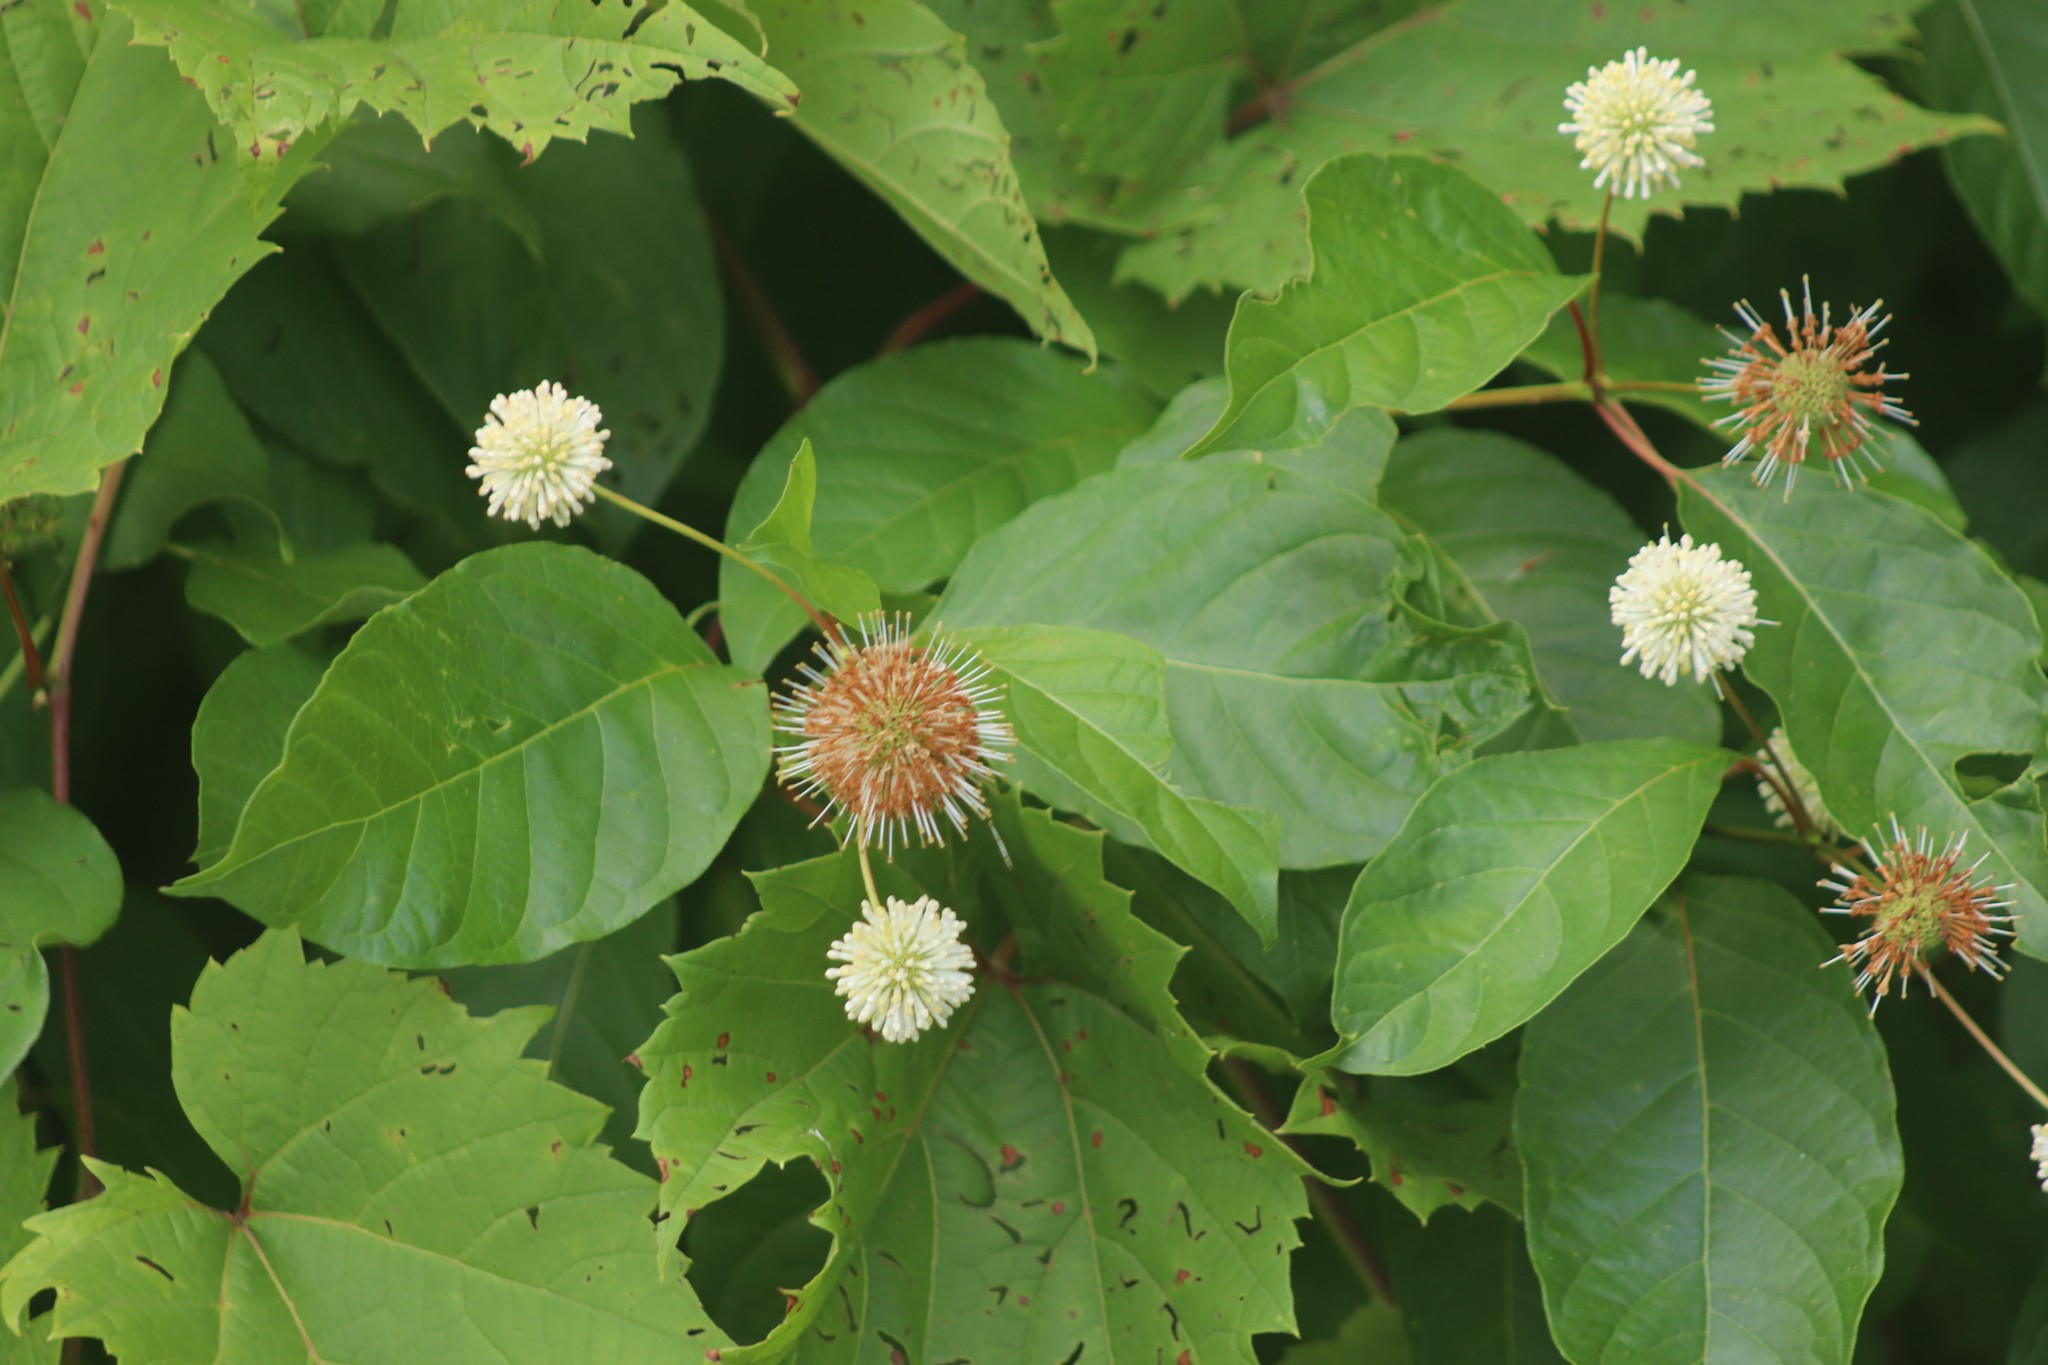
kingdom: Plantae
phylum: Tracheophyta
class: Magnoliopsida
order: Gentianales
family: Rubiaceae
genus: Cephalanthus
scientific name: Cephalanthus occidentalis
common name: Button-willow
